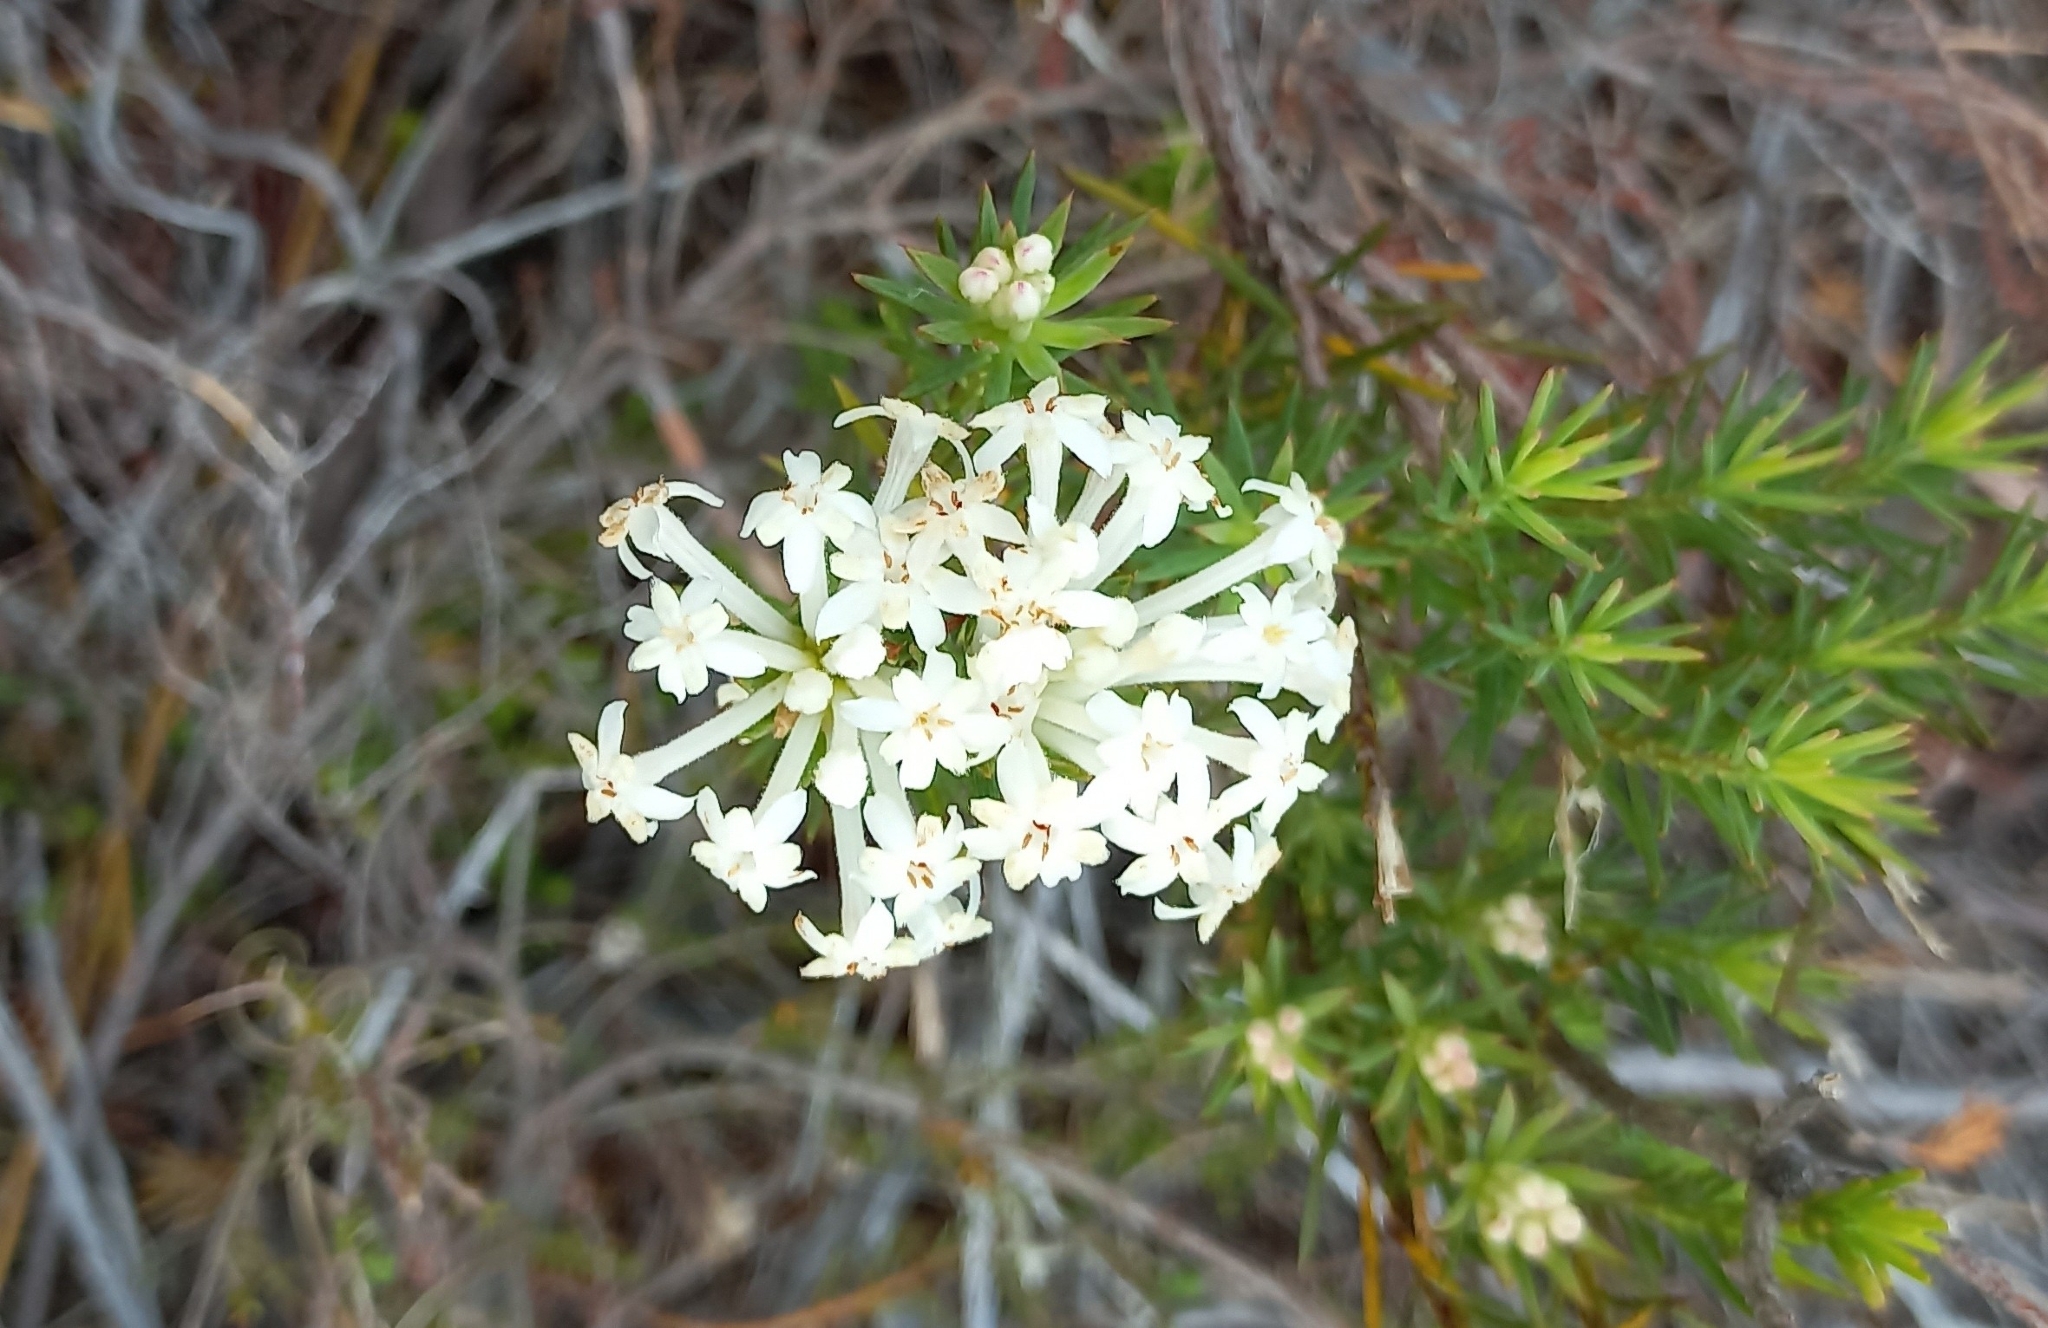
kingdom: Plantae
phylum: Tracheophyta
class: Magnoliopsida
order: Malvales
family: Thymelaeaceae
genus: Gnidia
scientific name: Gnidia pinifolia
